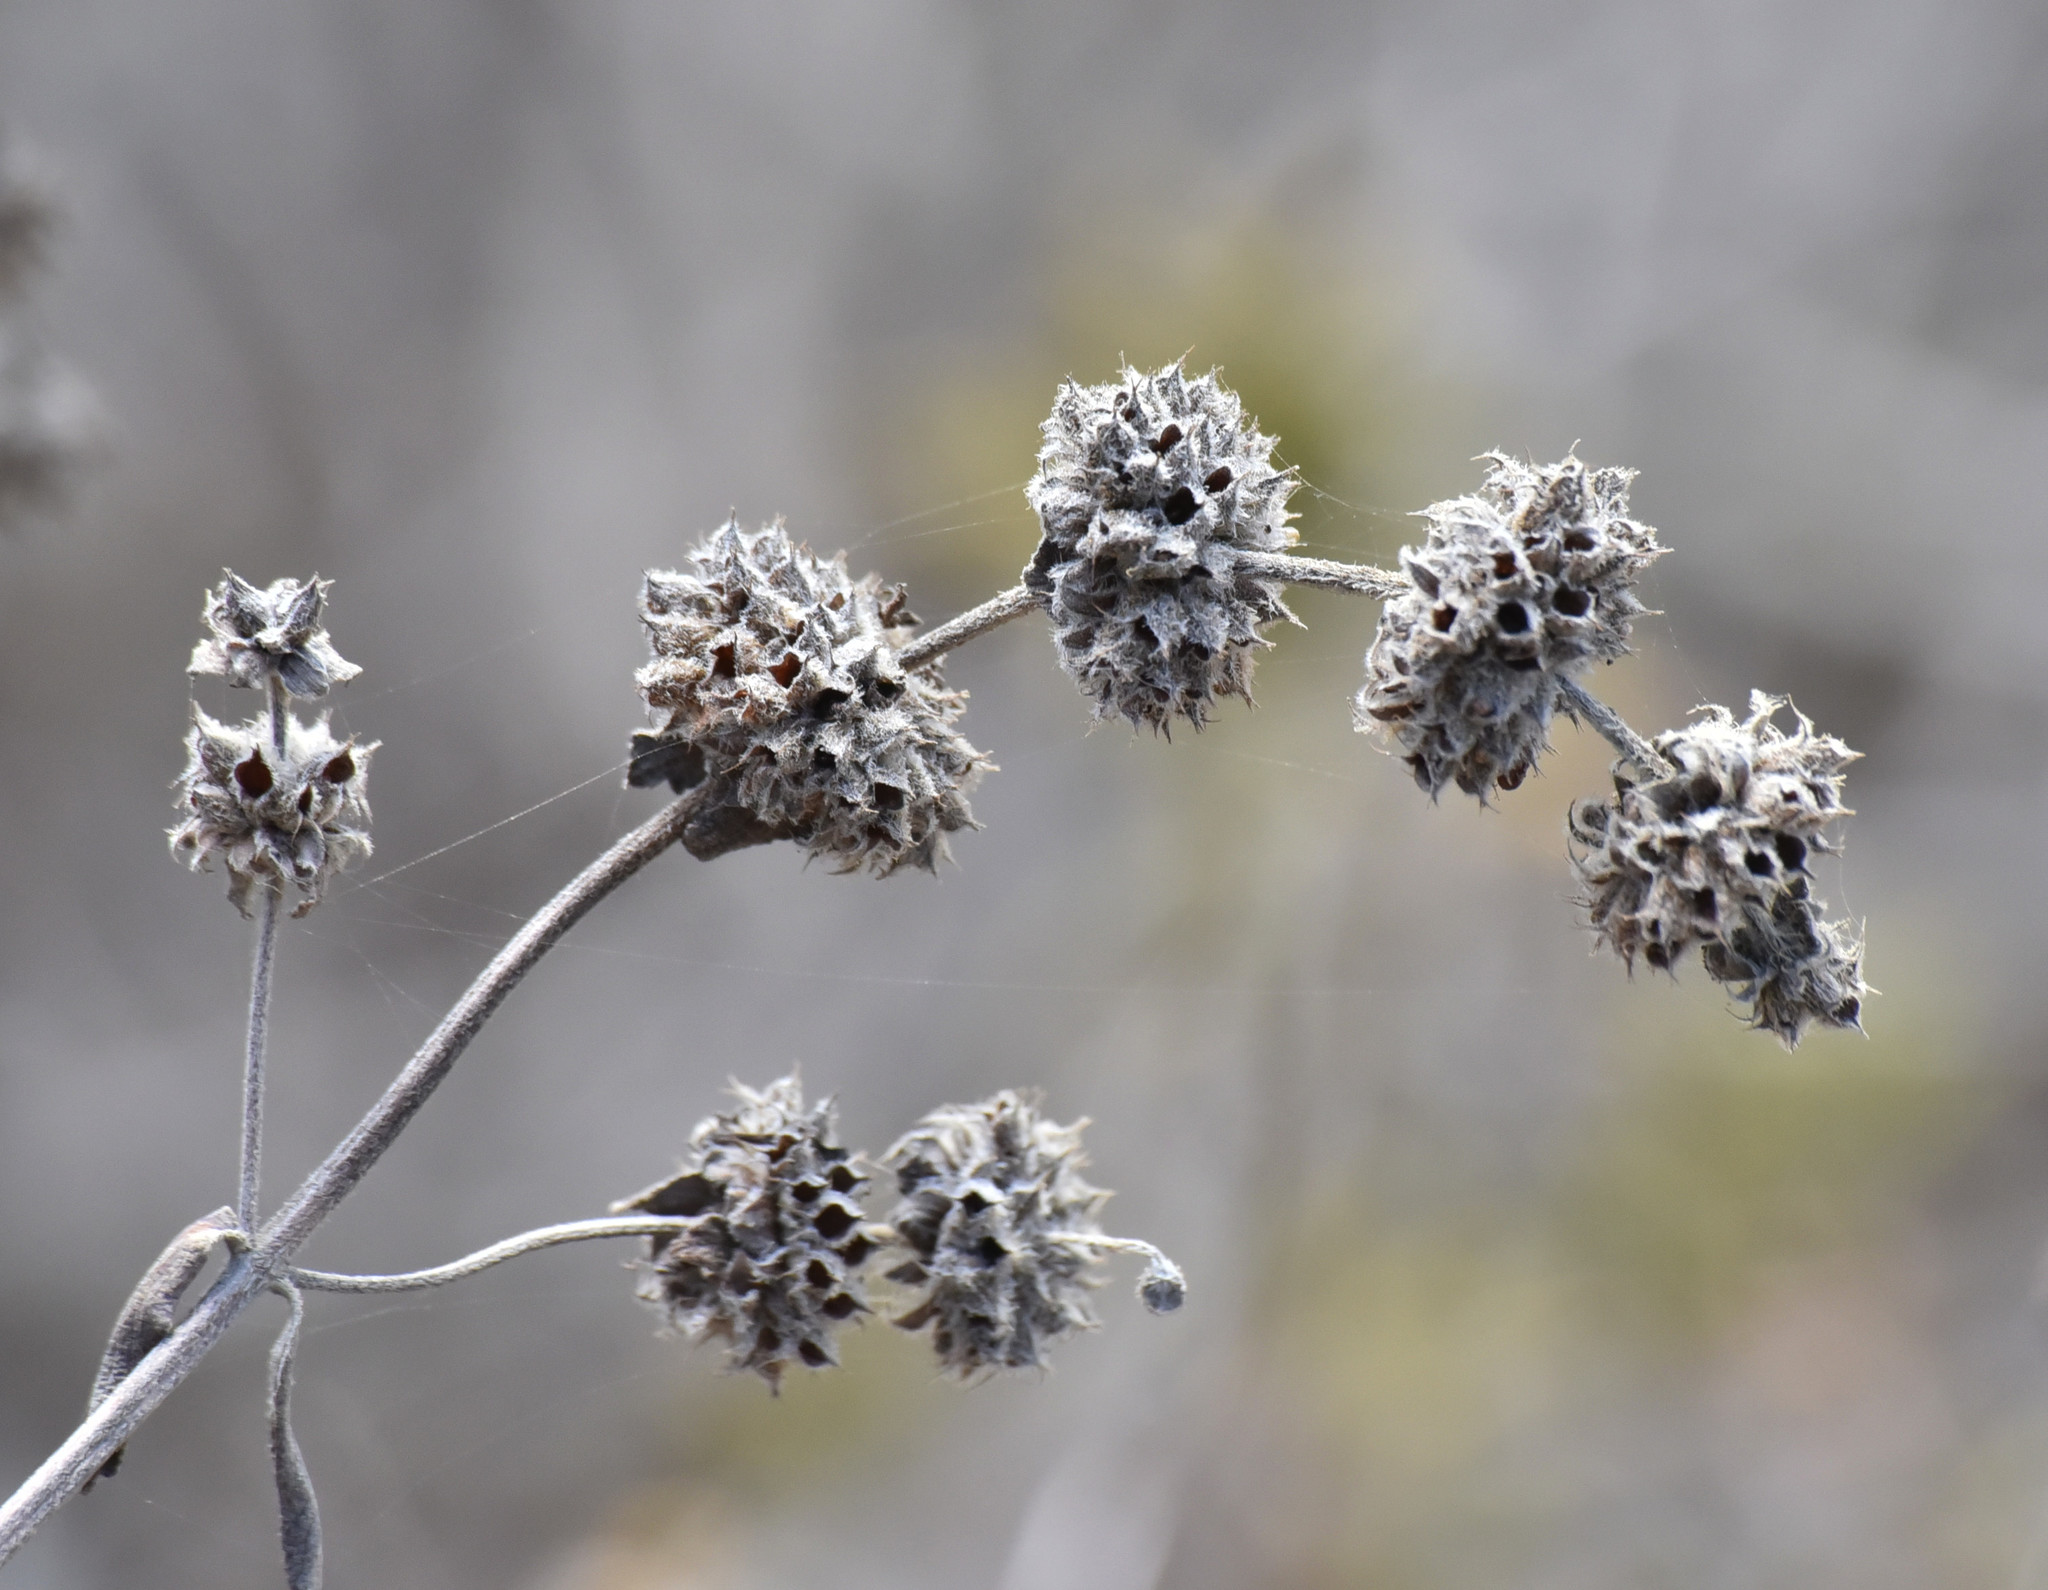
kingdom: Plantae
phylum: Tracheophyta
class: Magnoliopsida
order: Lamiales
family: Lamiaceae
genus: Salvia
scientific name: Salvia mellifera
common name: Black sage
